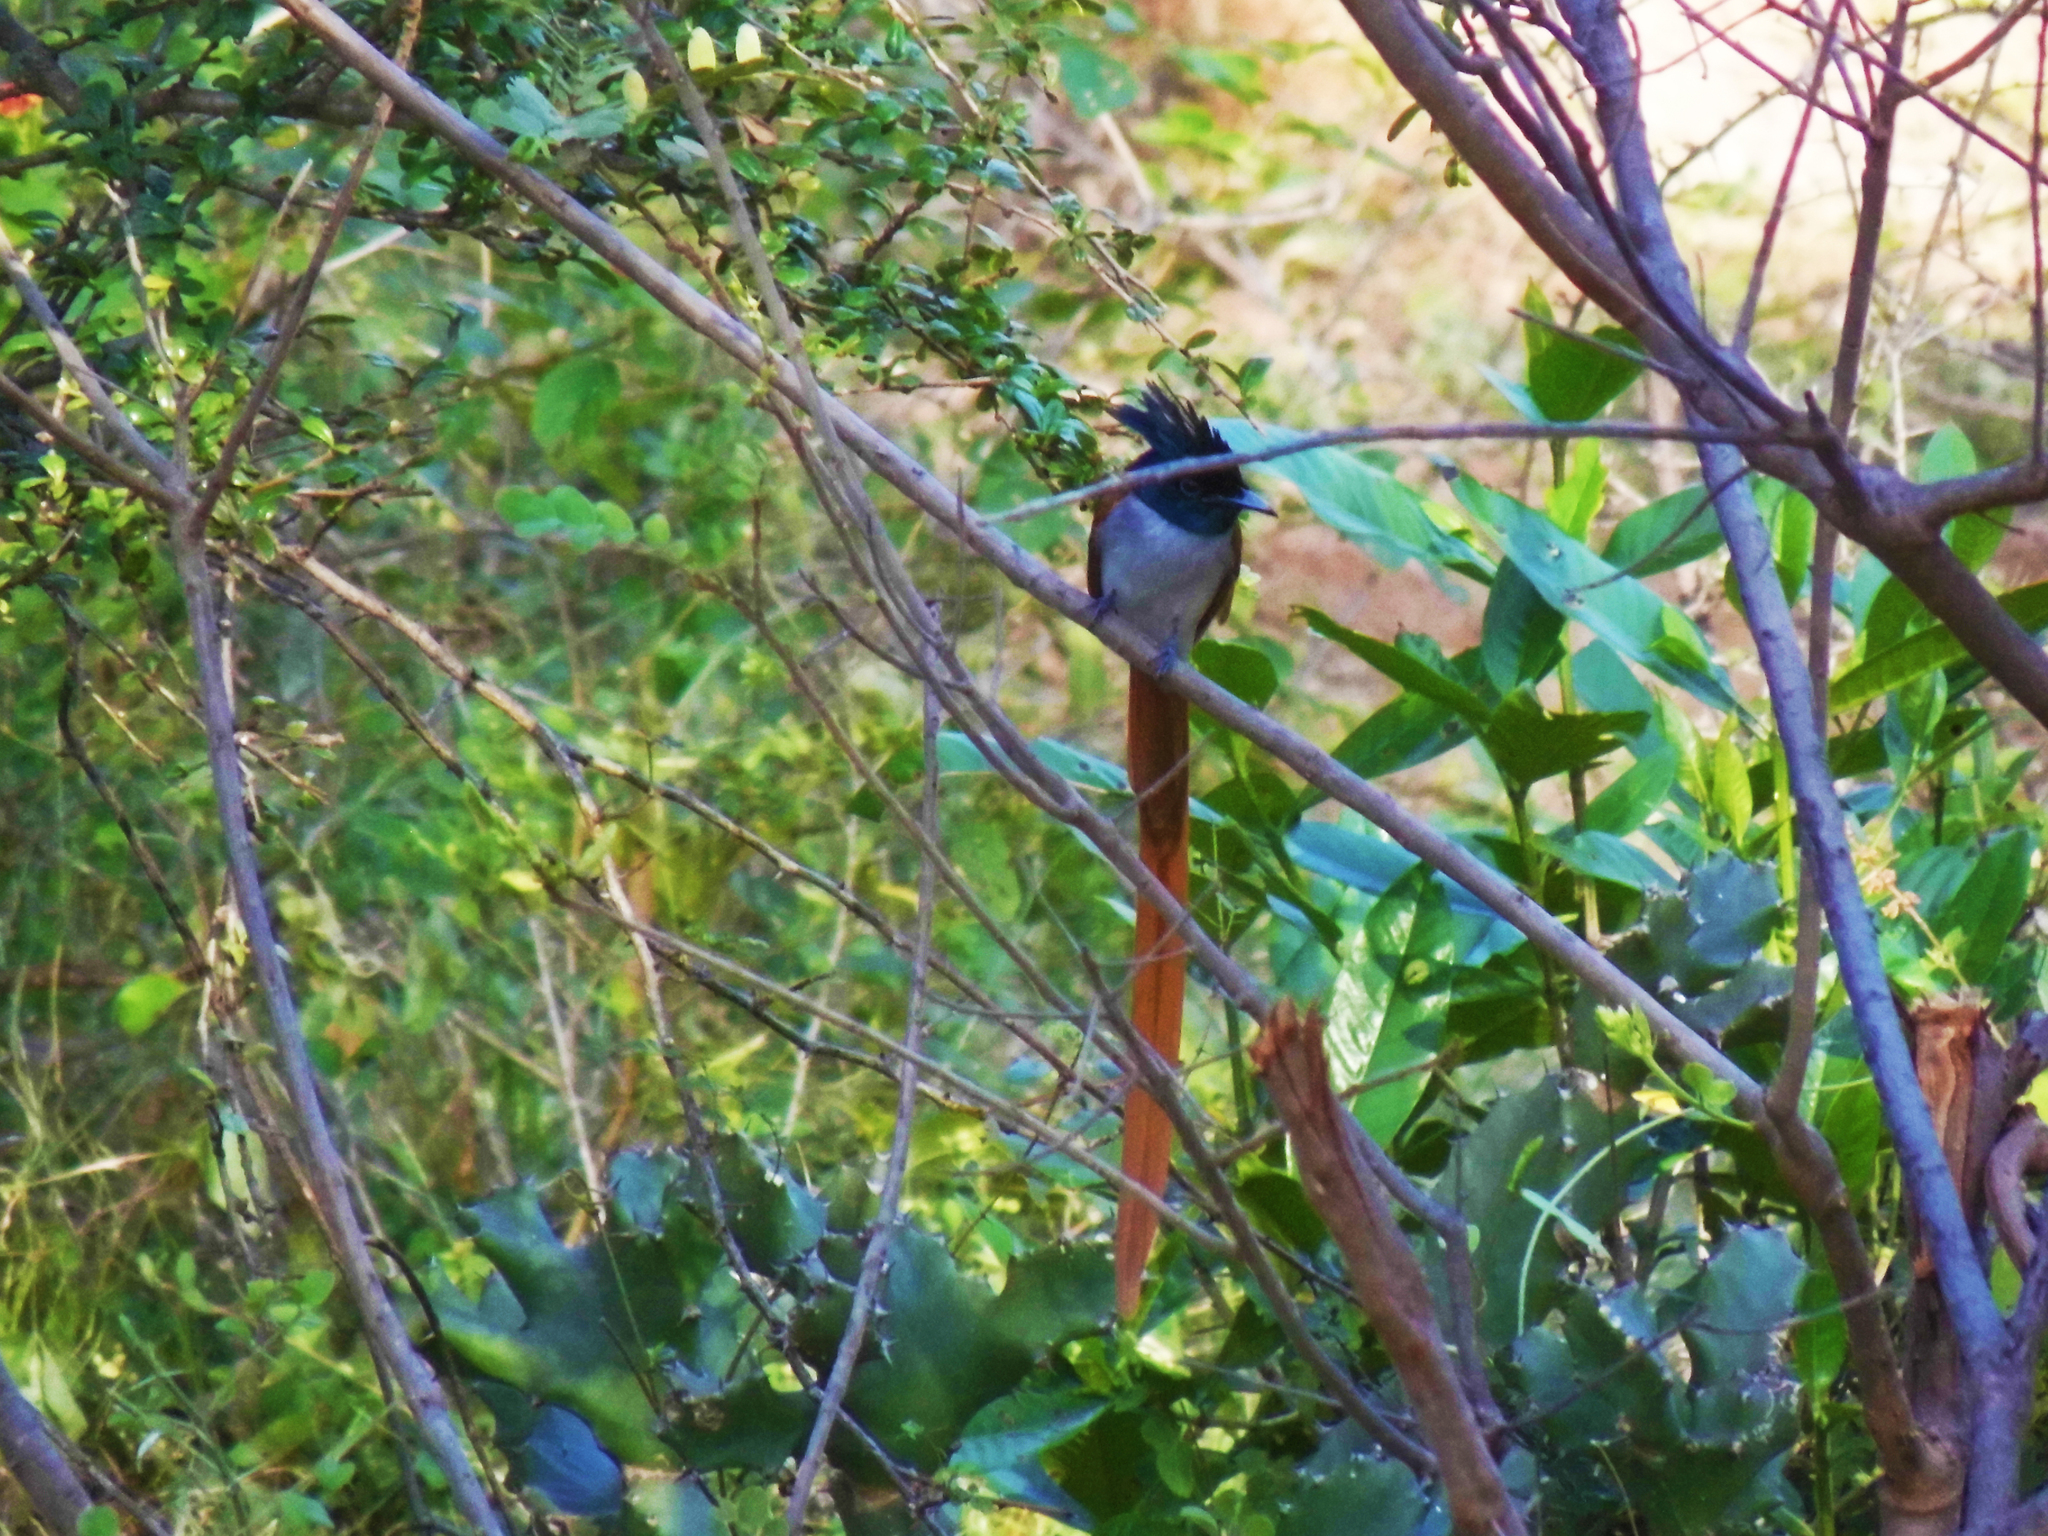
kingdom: Animalia
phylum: Chordata
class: Aves
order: Passeriformes
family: Monarchidae
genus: Terpsiphone
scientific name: Terpsiphone paradisi
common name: Indian paradise flycatcher
